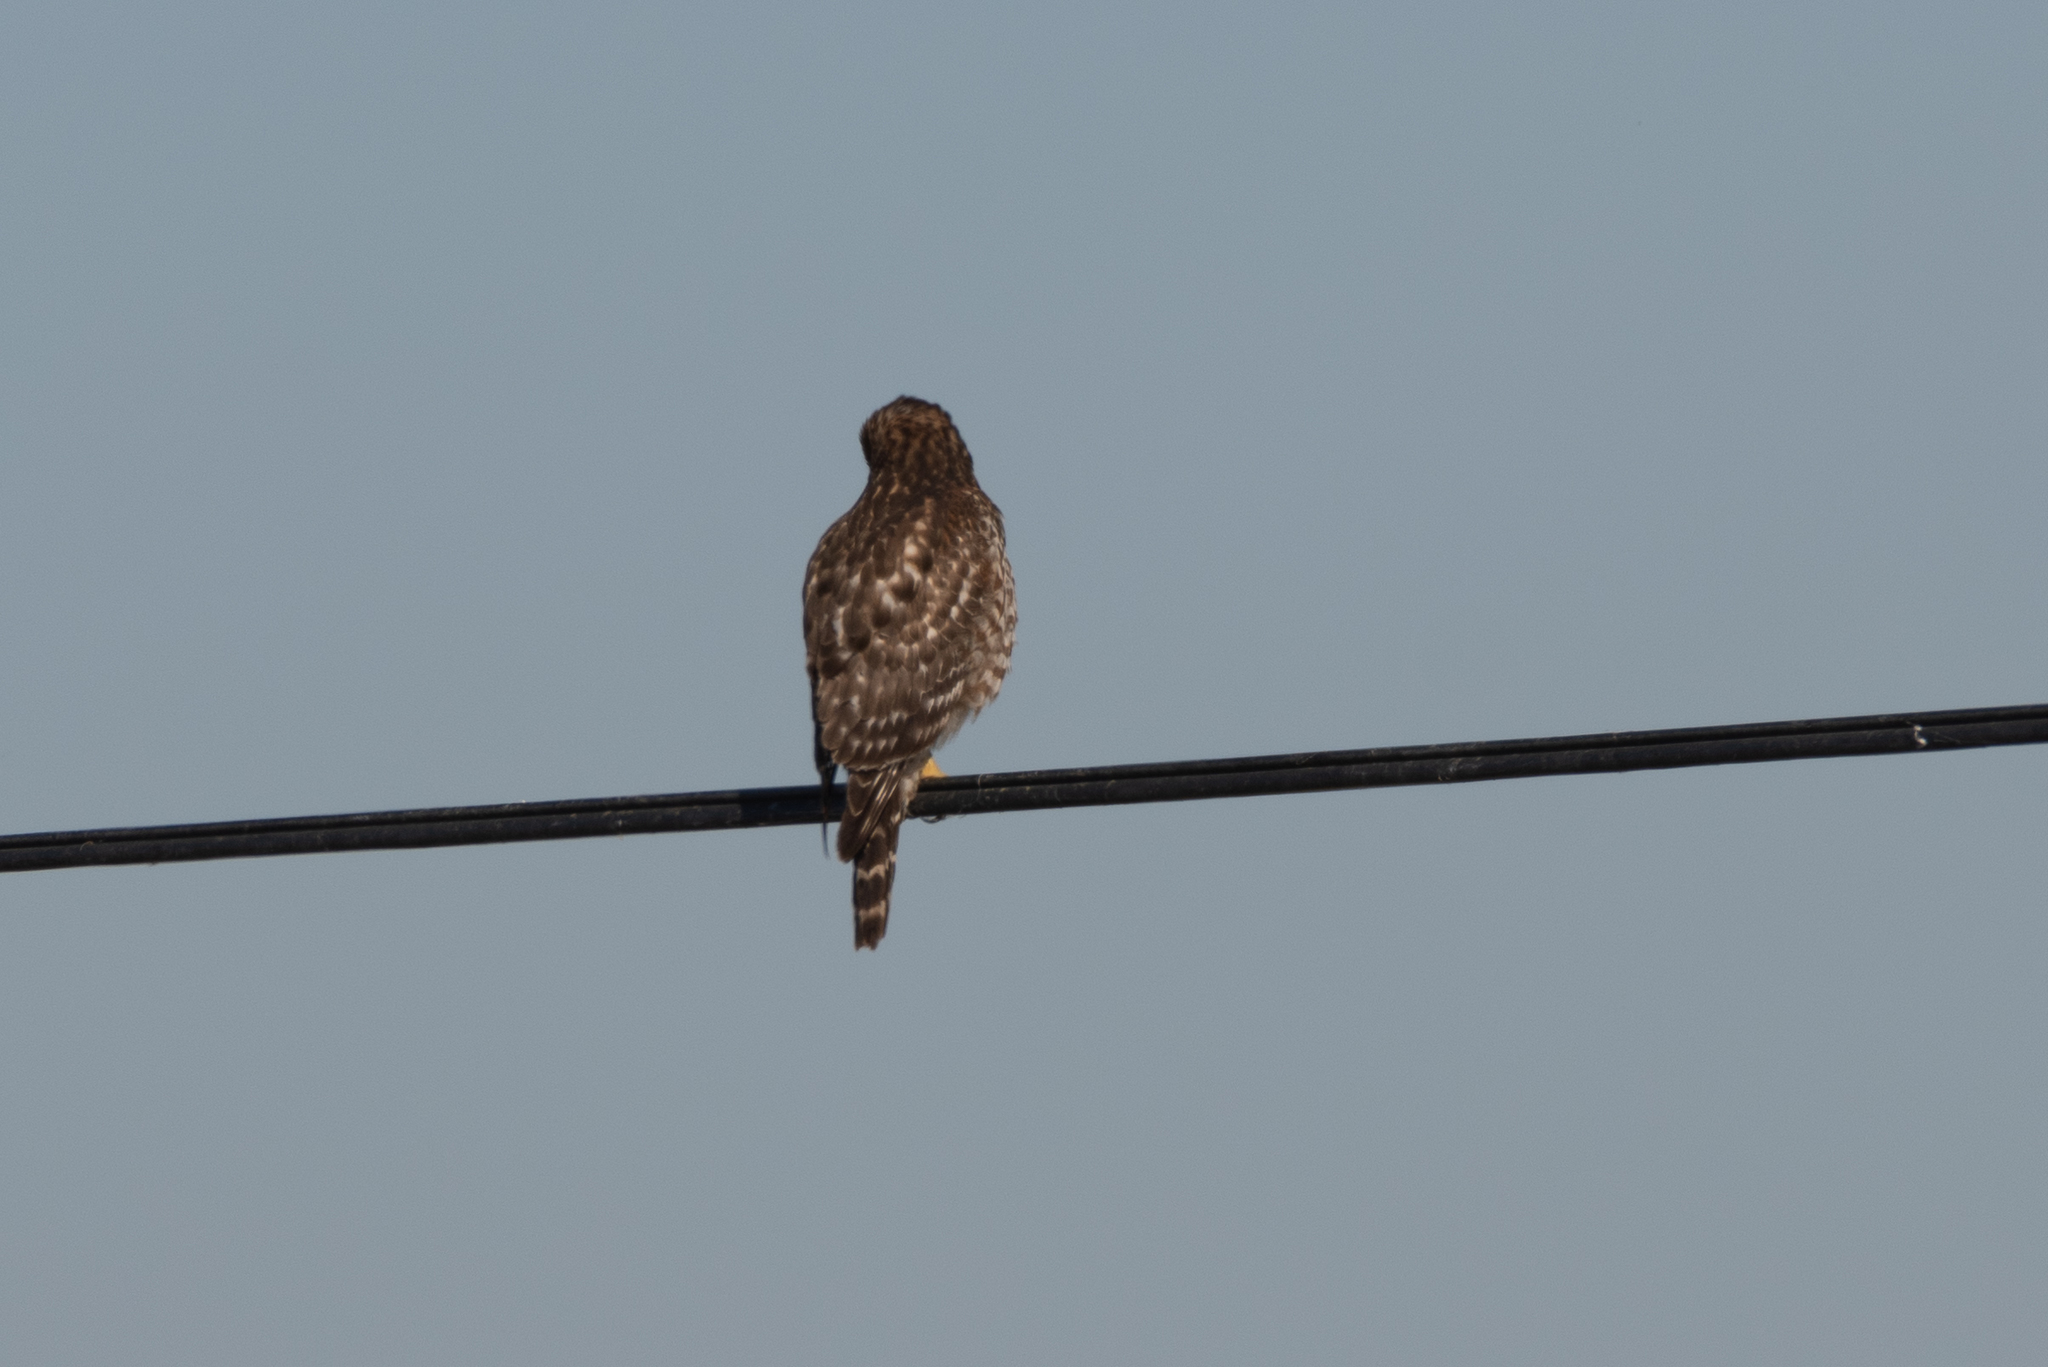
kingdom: Animalia
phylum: Chordata
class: Aves
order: Accipitriformes
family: Accipitridae
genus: Buteo
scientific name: Buteo lineatus
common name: Red-shouldered hawk
